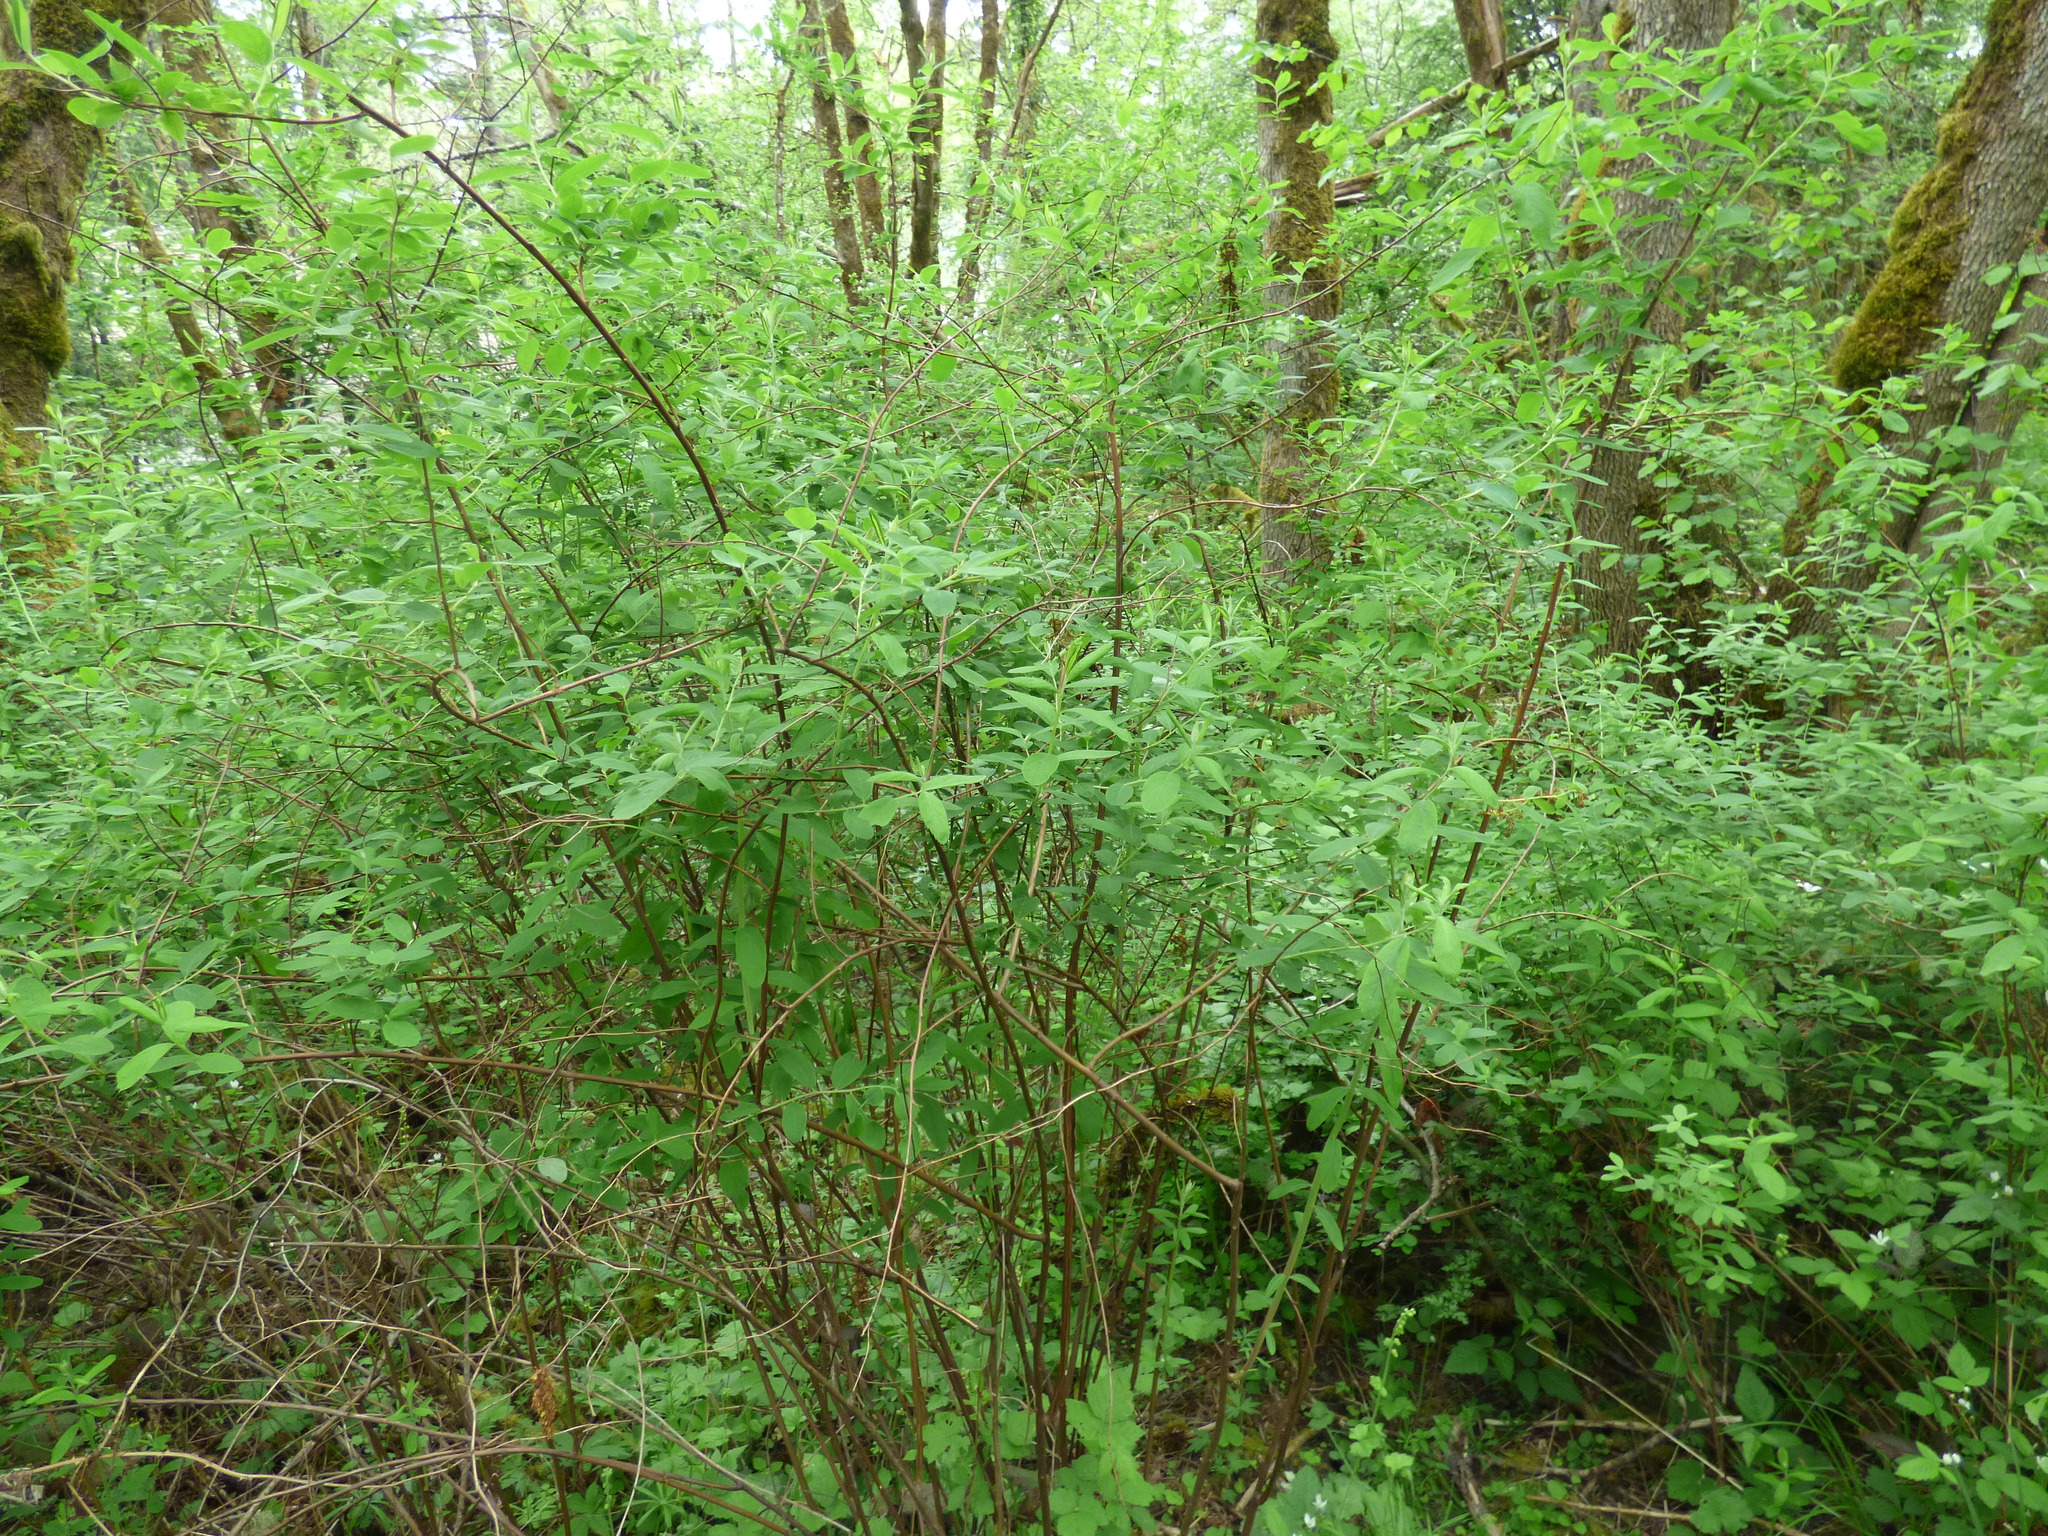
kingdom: Plantae
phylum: Tracheophyta
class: Magnoliopsida
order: Rosales
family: Rosaceae
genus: Spiraea
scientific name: Spiraea douglasii
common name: Steeplebush
